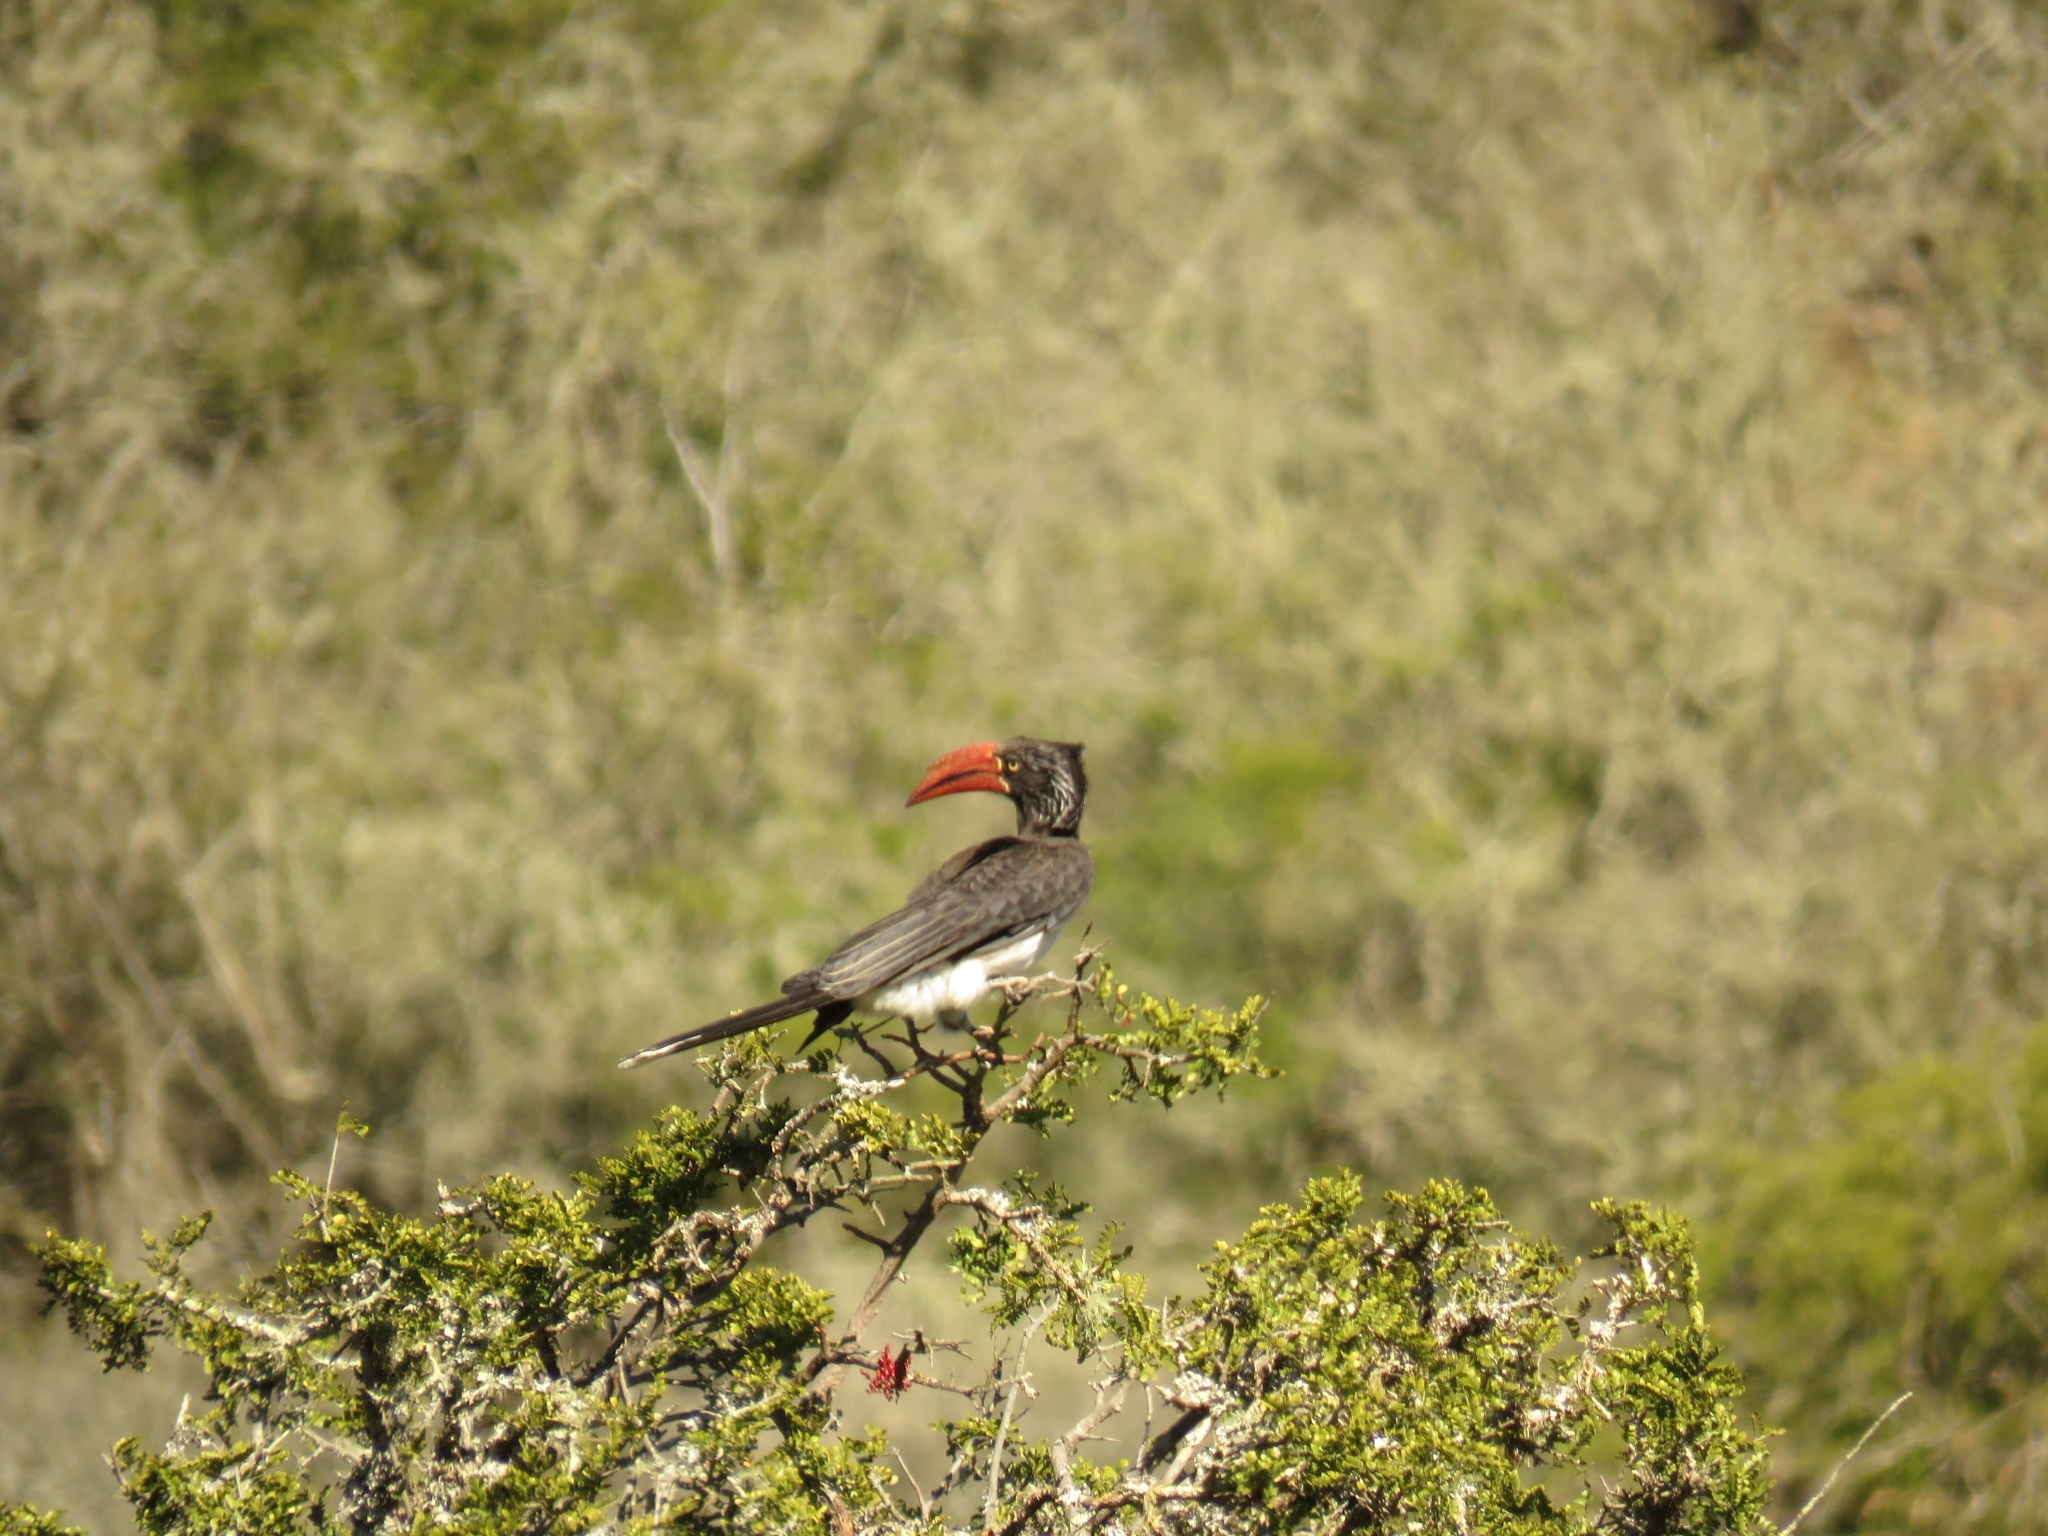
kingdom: Animalia
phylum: Chordata
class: Aves
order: Bucerotiformes
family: Bucerotidae
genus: Lophoceros
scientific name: Lophoceros alboterminatus
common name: Crowned hornbill
